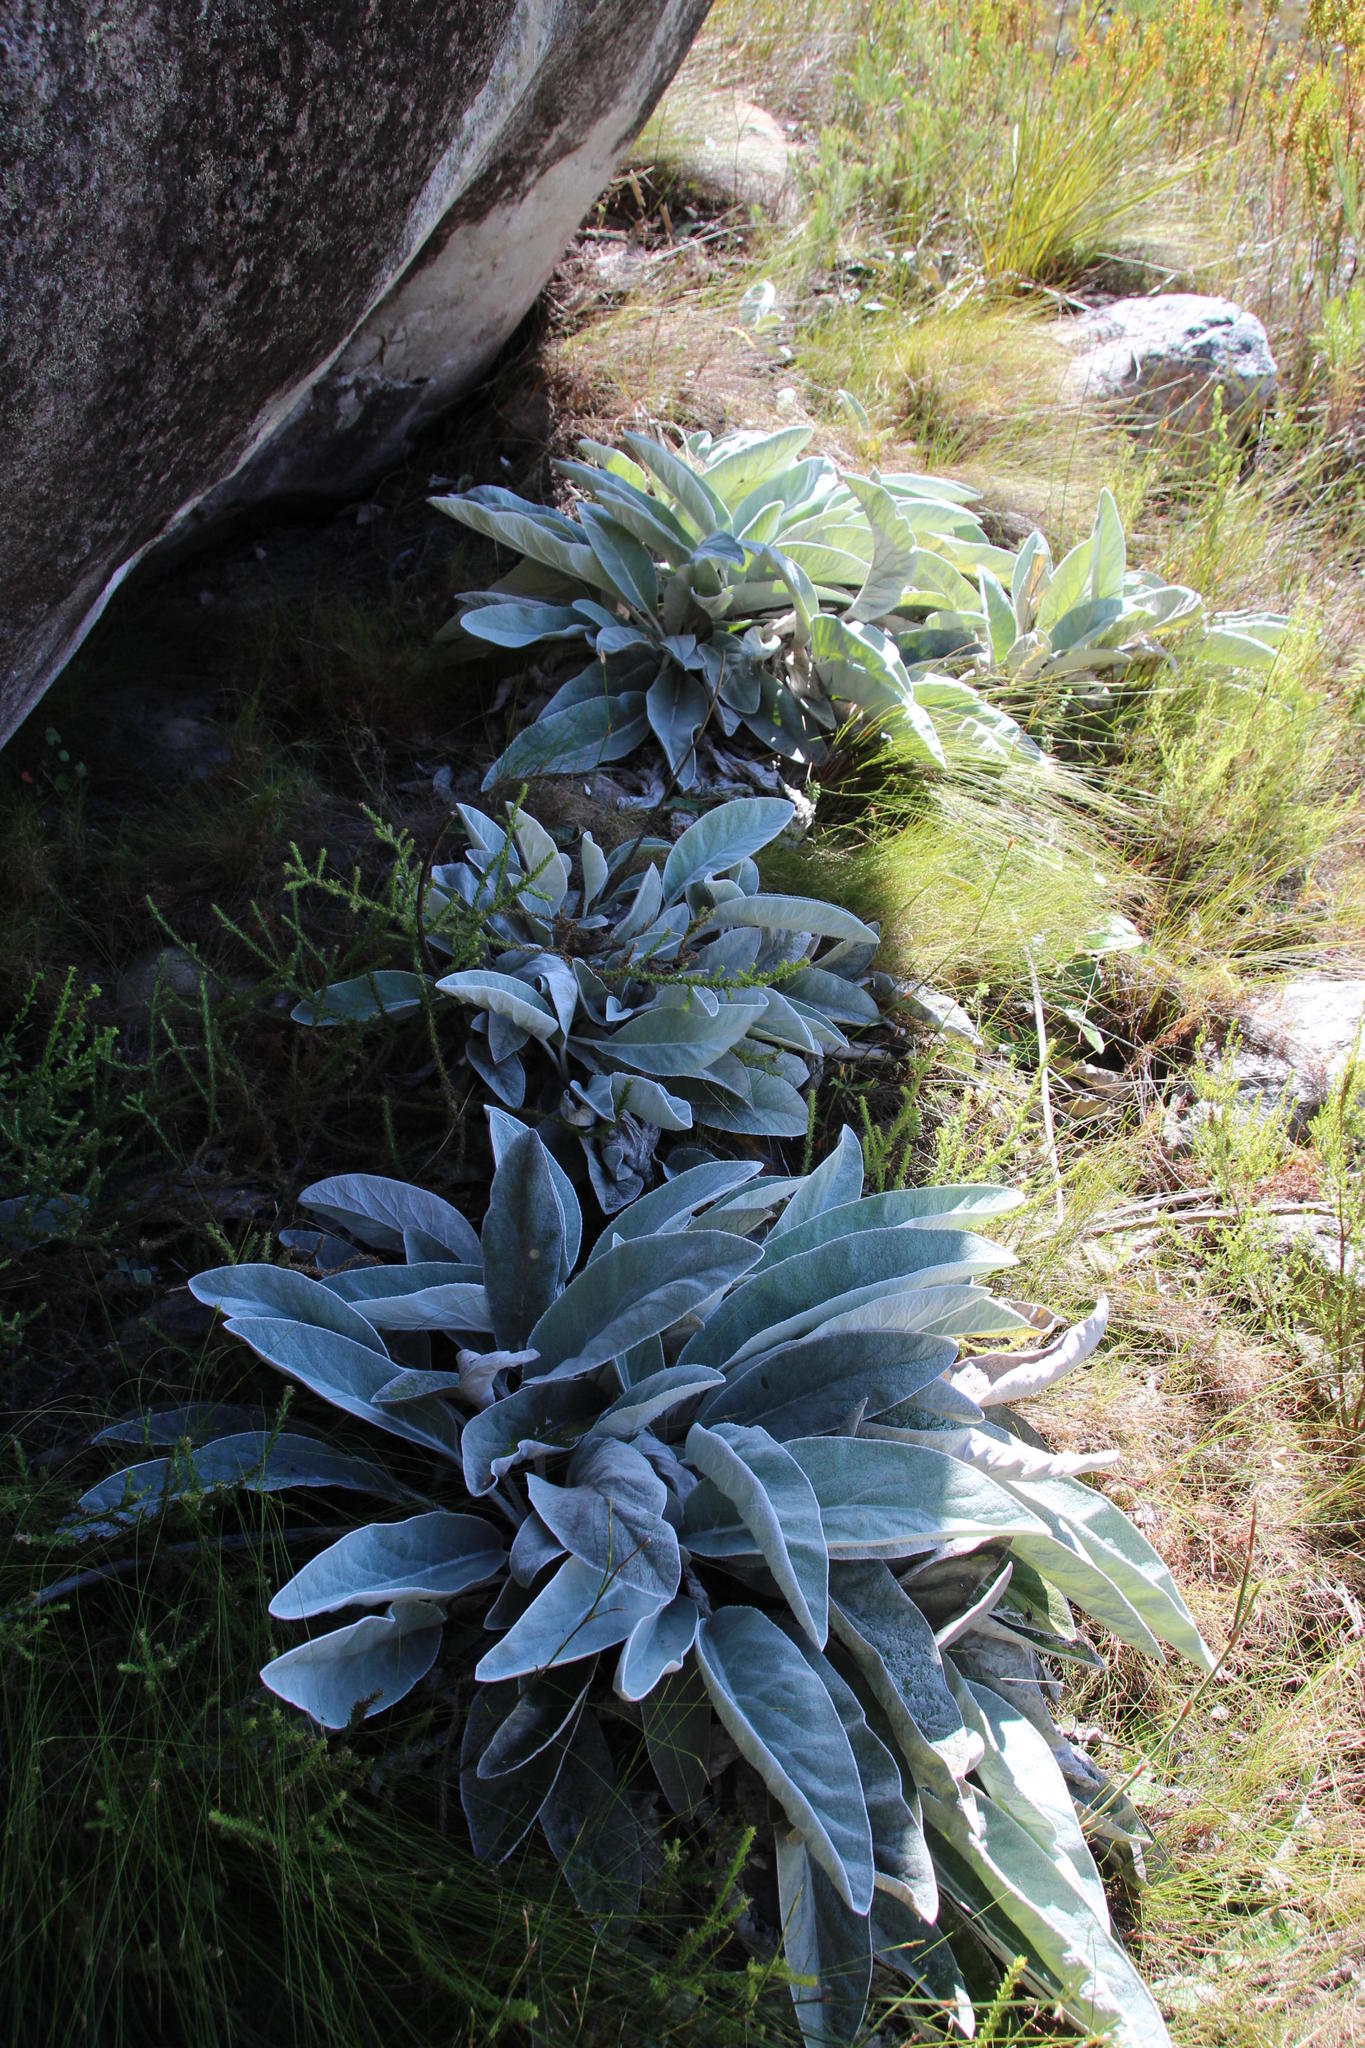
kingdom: Plantae
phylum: Tracheophyta
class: Magnoliopsida
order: Apiales
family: Apiaceae
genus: Hermas
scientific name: Hermas intermedia
